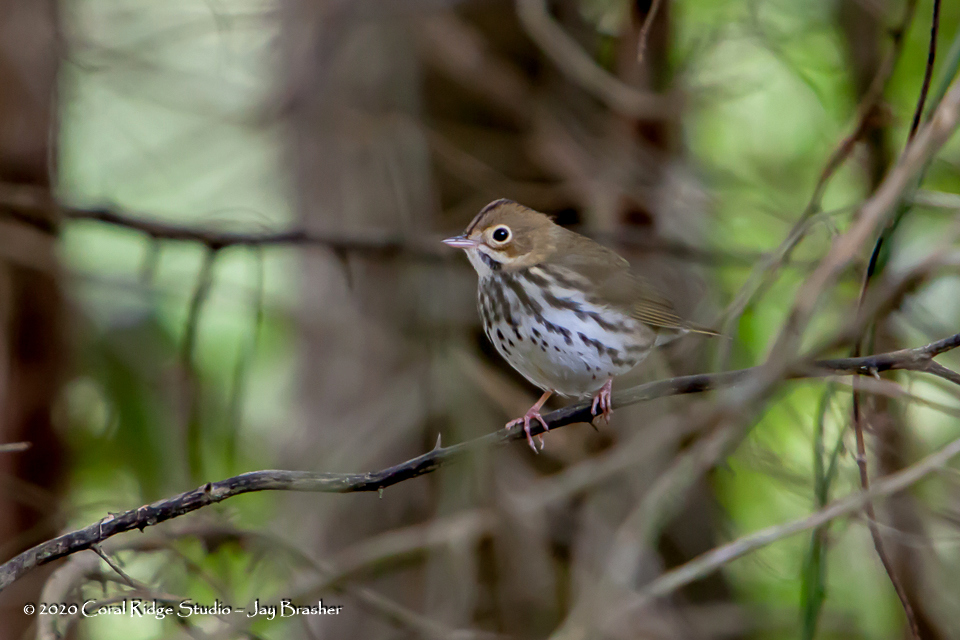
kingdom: Animalia
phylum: Chordata
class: Aves
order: Passeriformes
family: Parulidae
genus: Seiurus
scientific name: Seiurus aurocapilla
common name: Ovenbird
